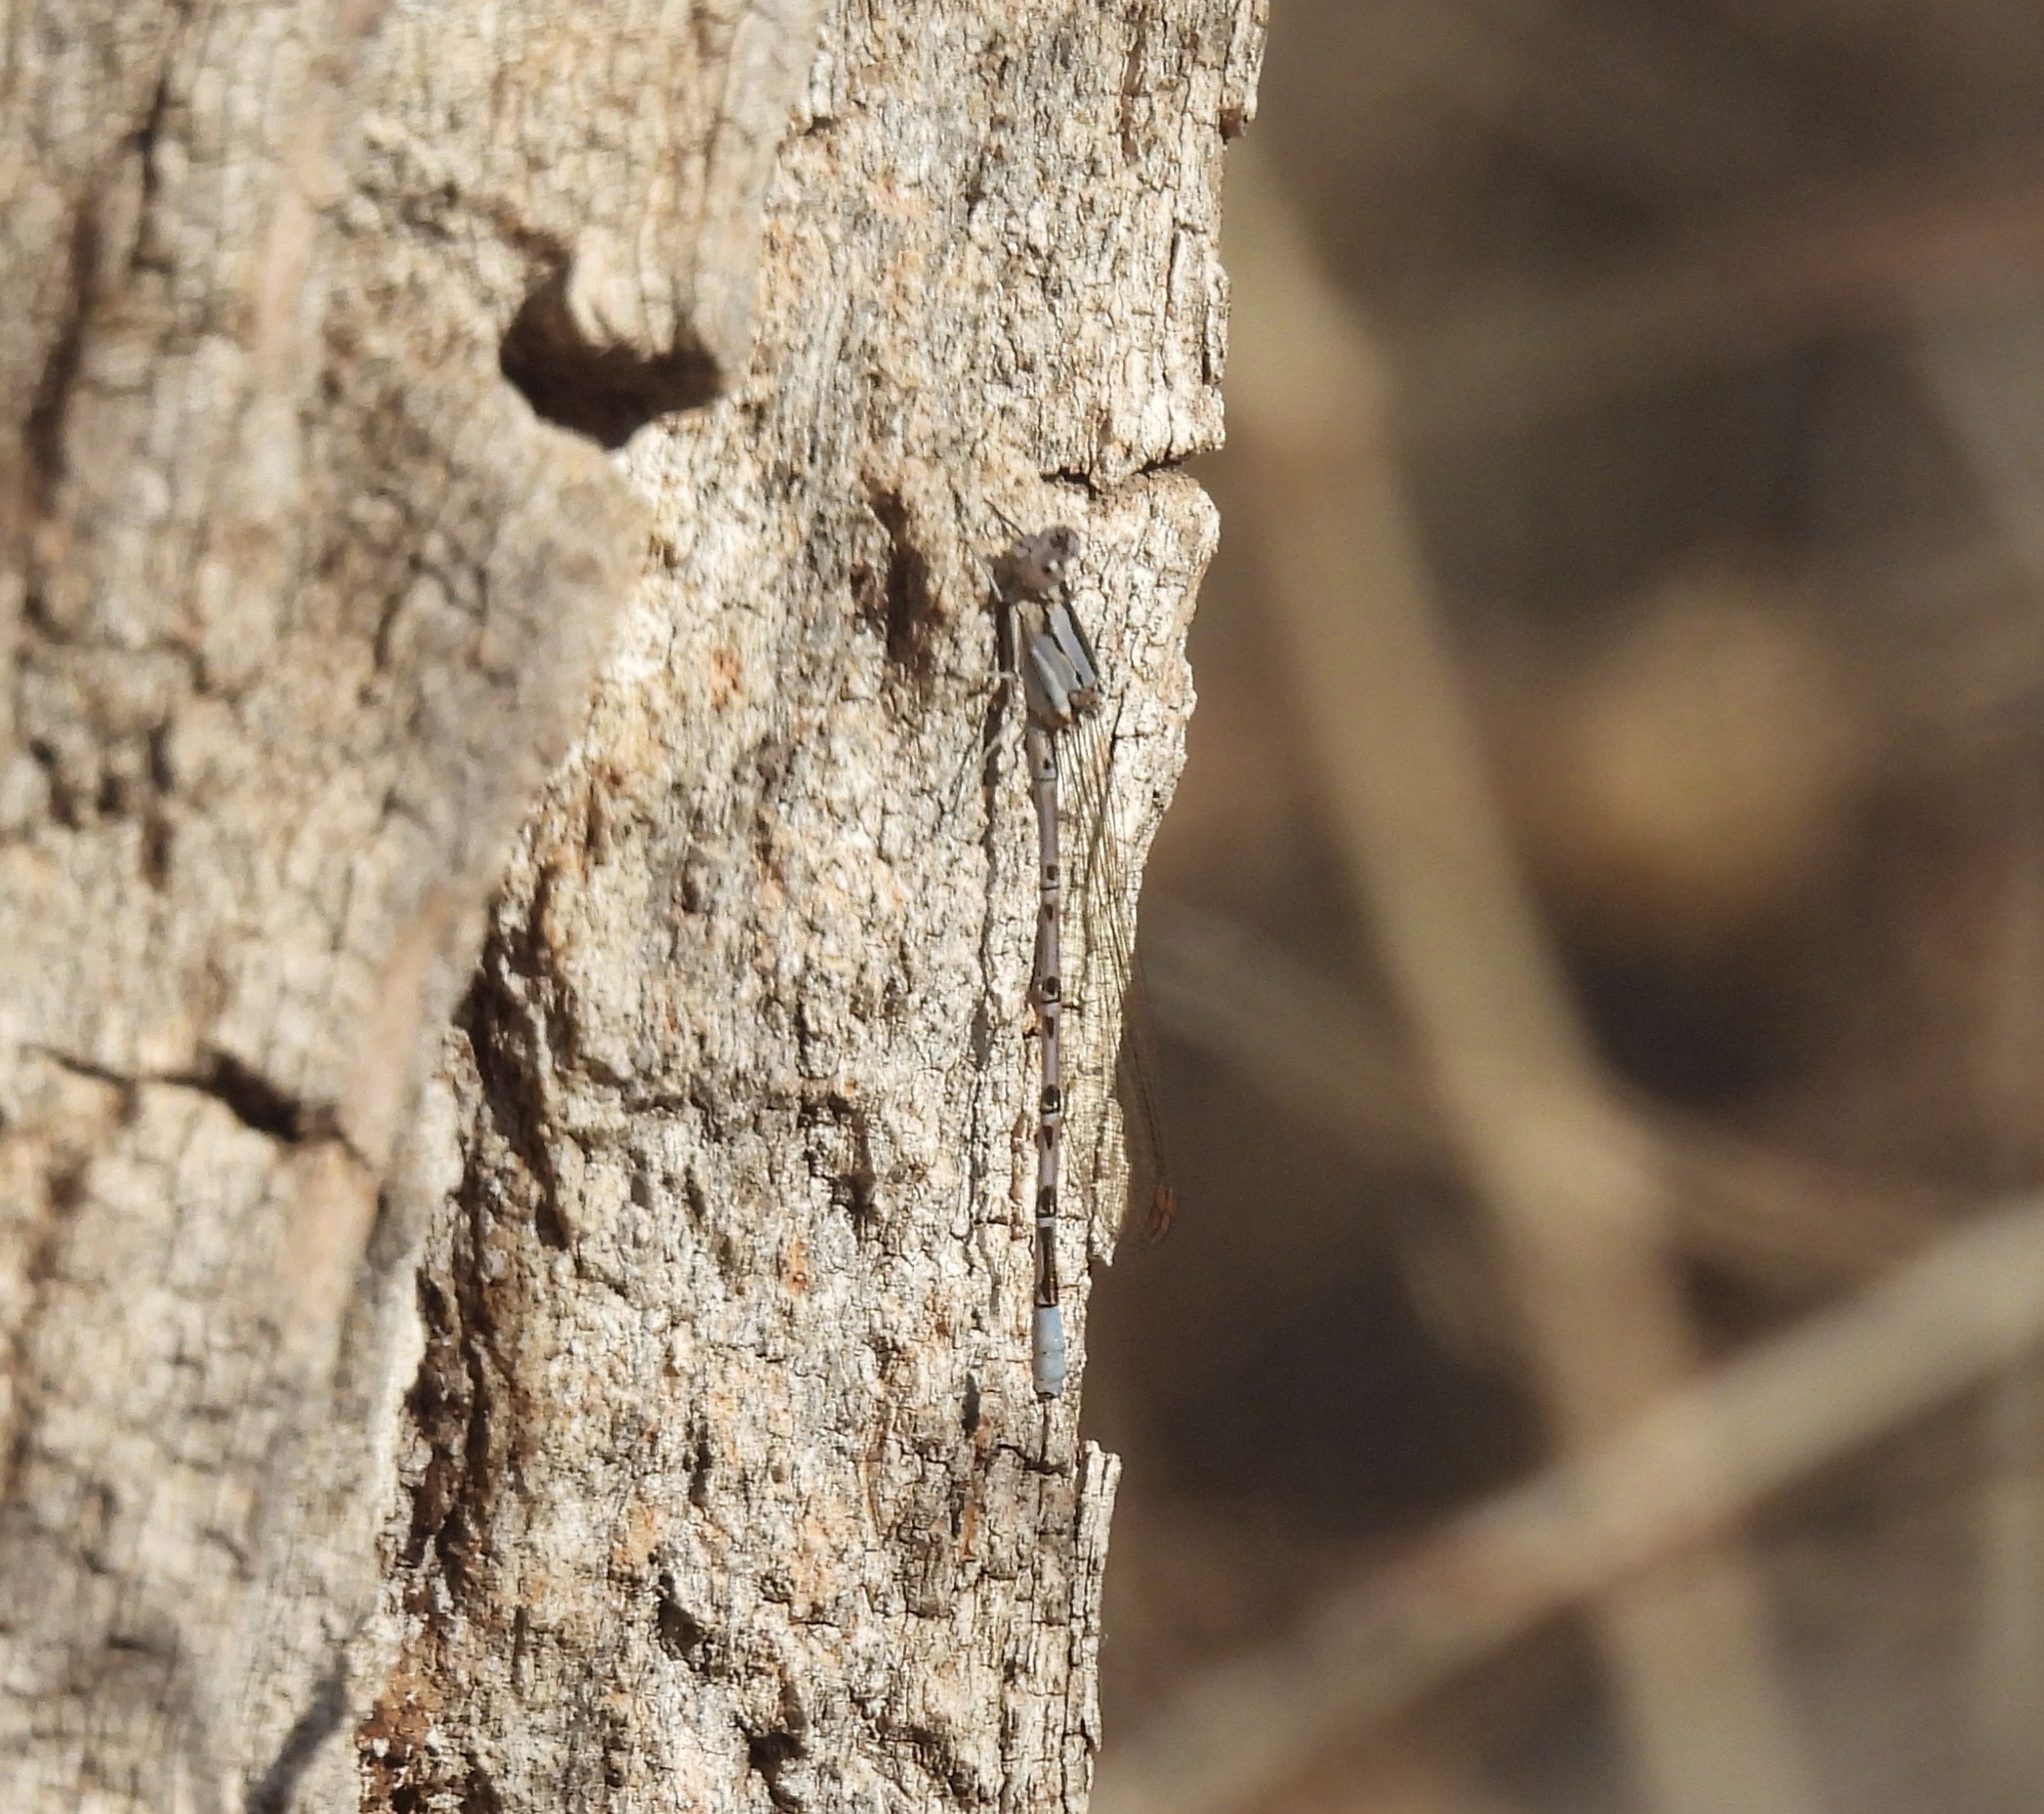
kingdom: Animalia
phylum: Arthropoda
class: Insecta
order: Odonata
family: Coenagrionidae
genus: Argia
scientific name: Argia funebris
